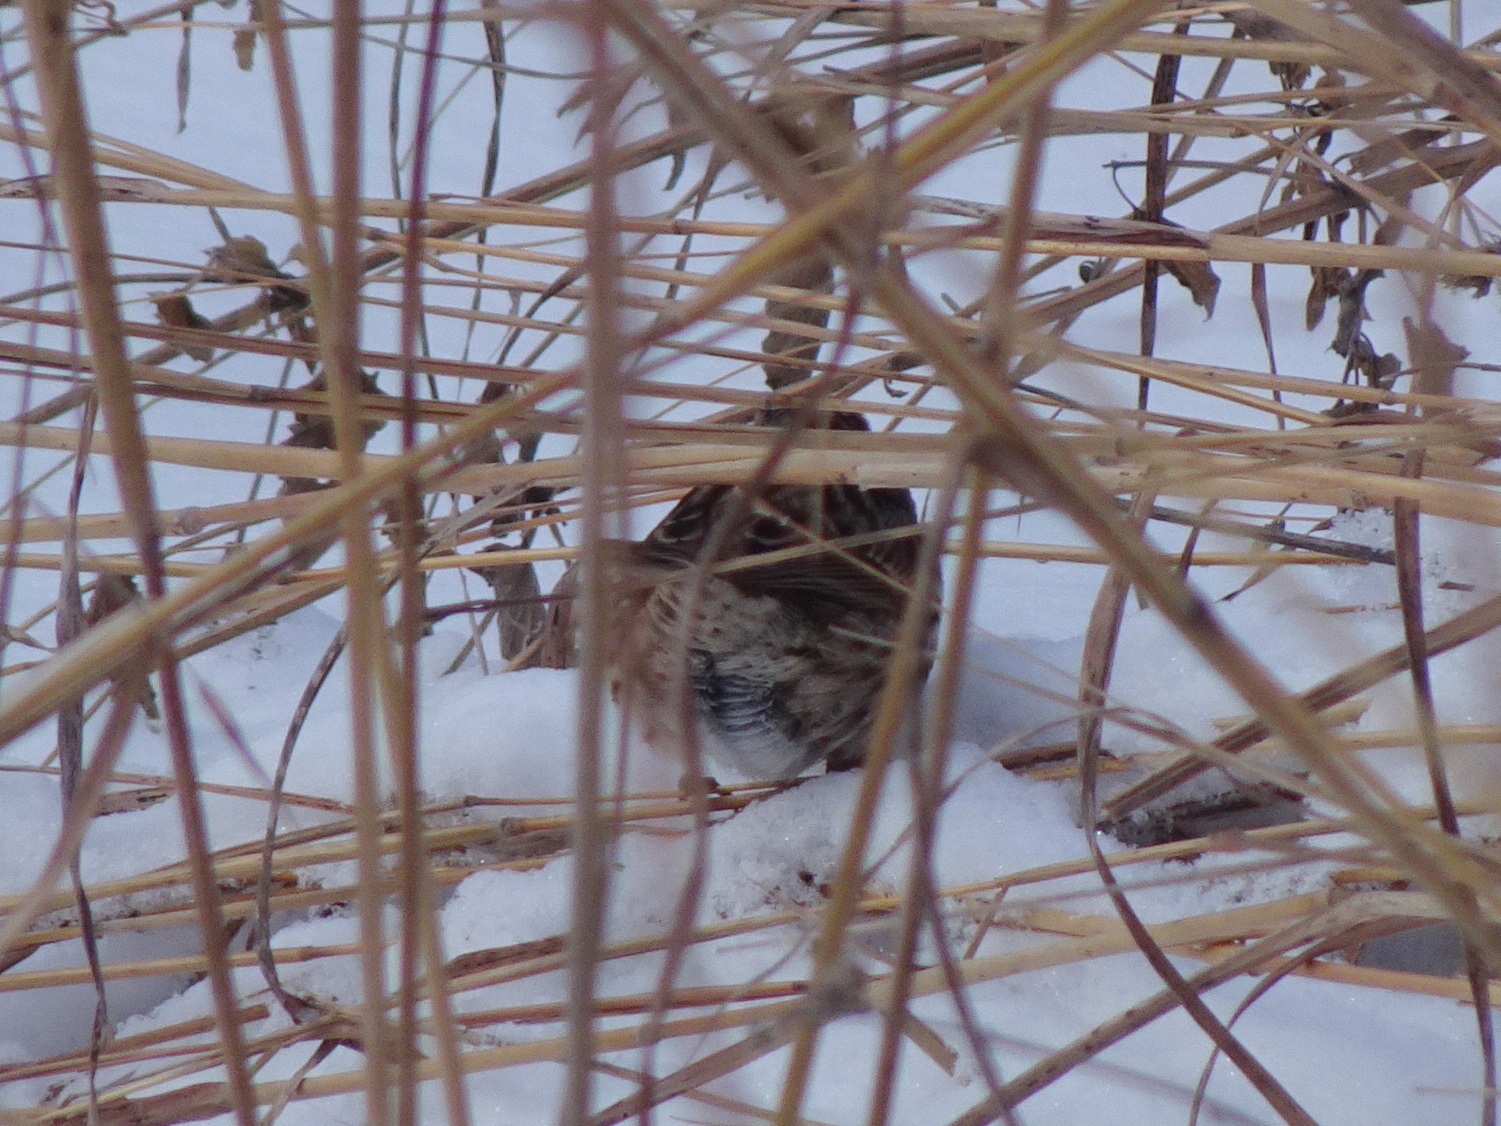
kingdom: Animalia
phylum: Chordata
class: Aves
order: Passeriformes
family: Passerellidae
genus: Melospiza
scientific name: Melospiza melodia
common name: Song sparrow
